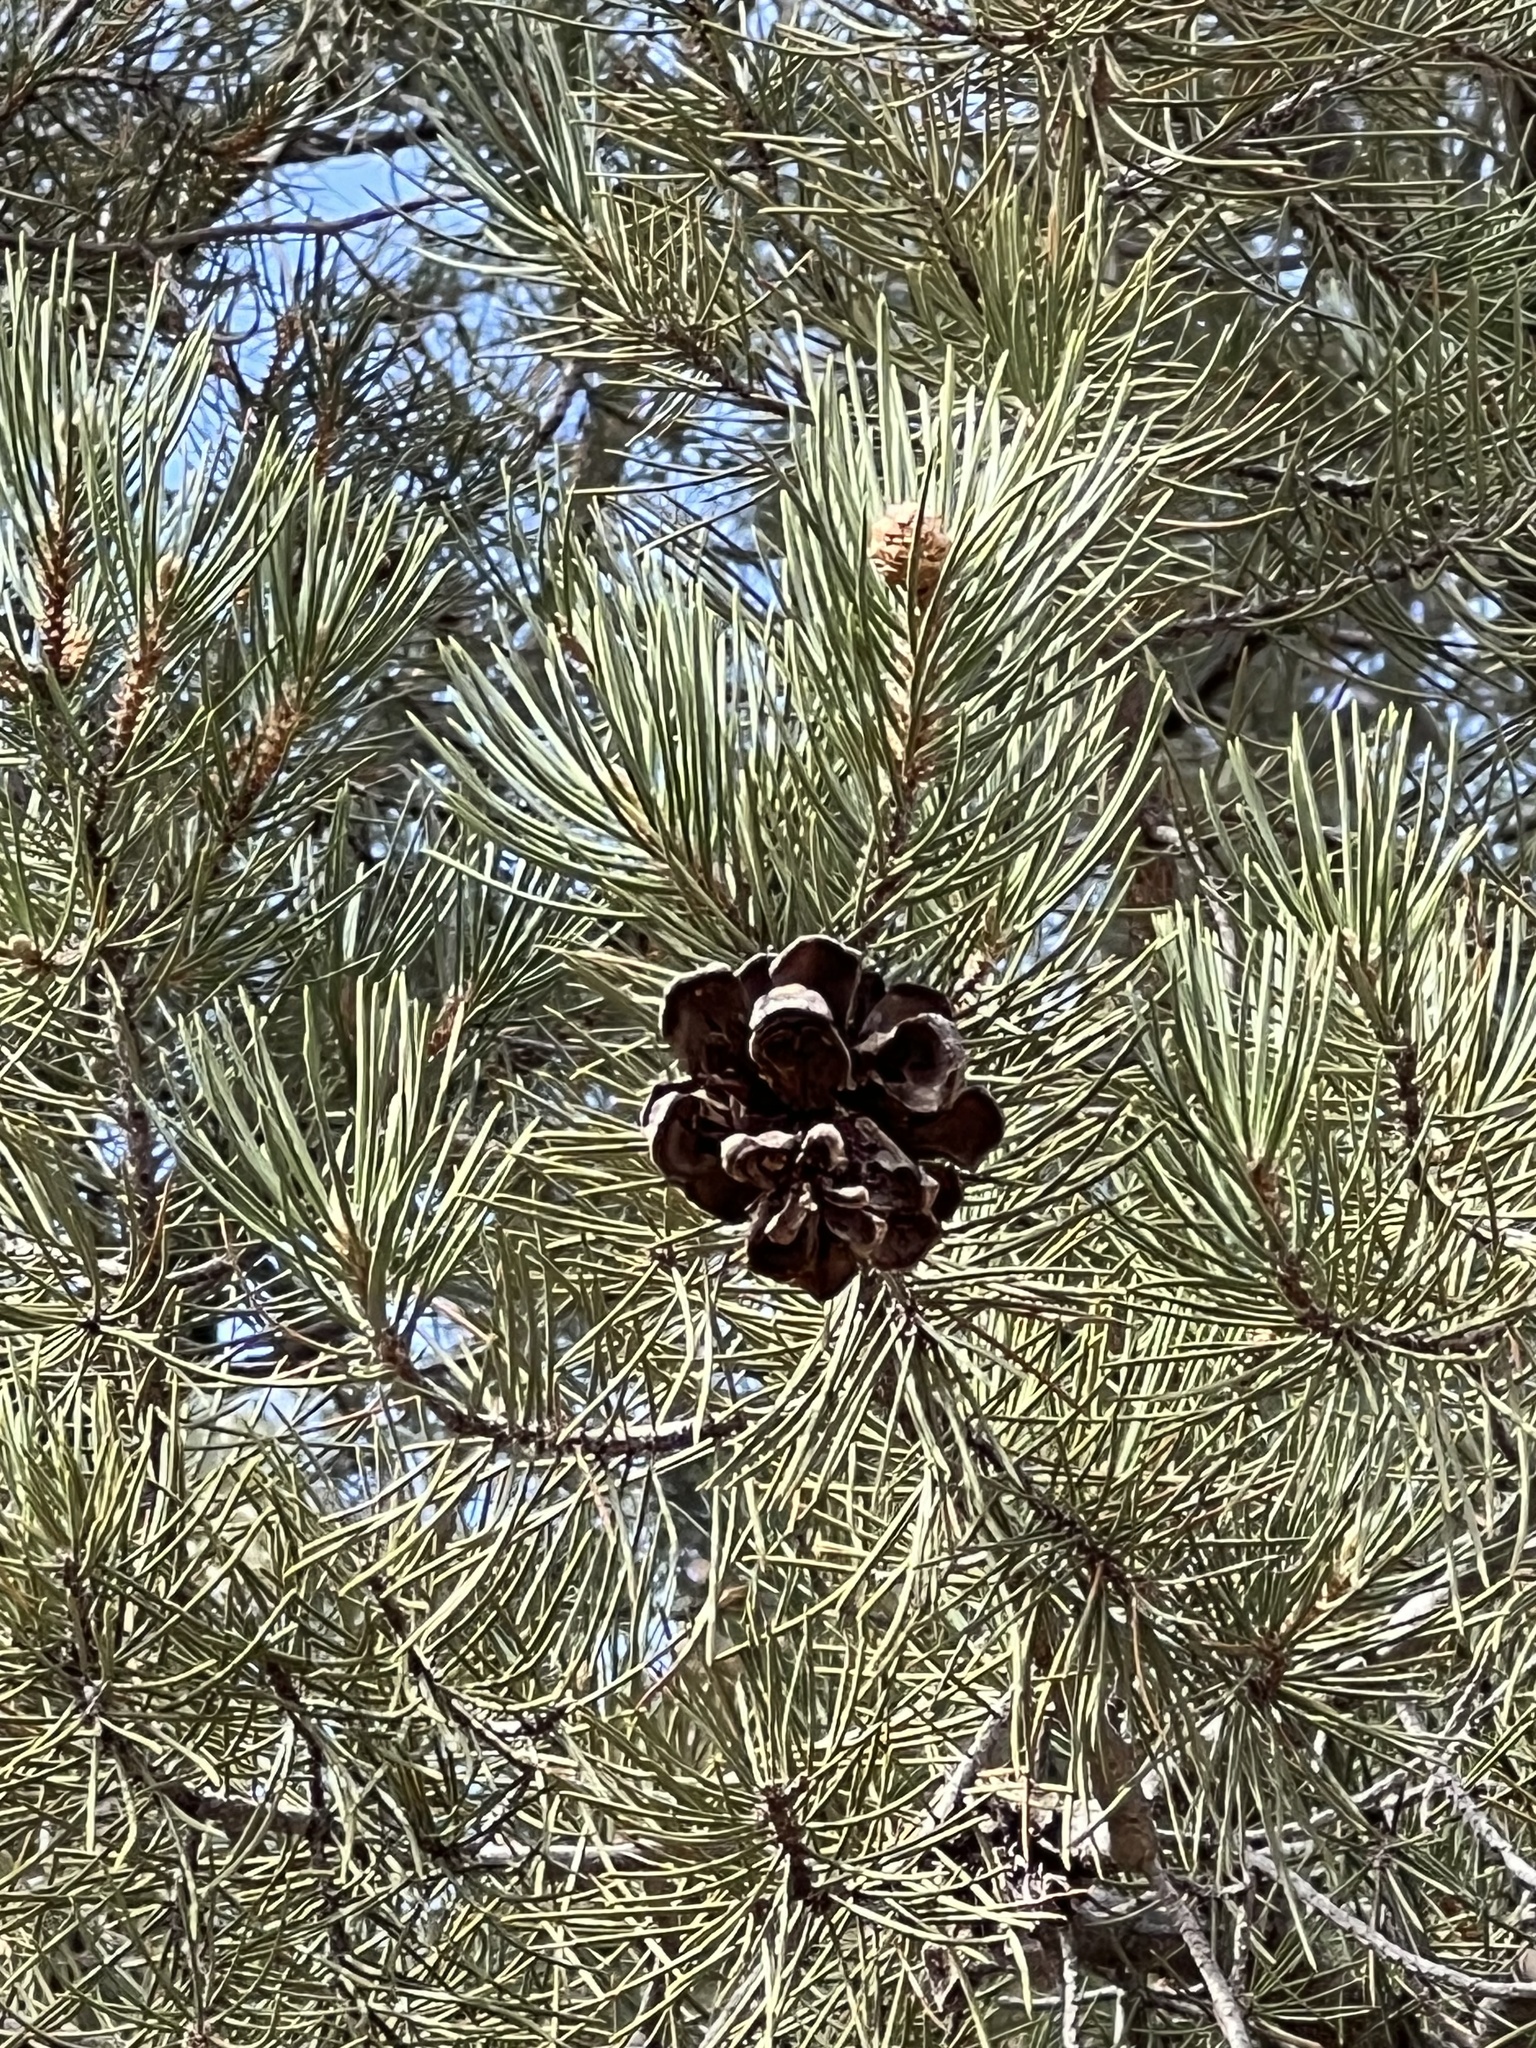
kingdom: Plantae
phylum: Tracheophyta
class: Pinopsida
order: Pinales
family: Pinaceae
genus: Pinus
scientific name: Pinus monophylla
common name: One-leaved nut pine
